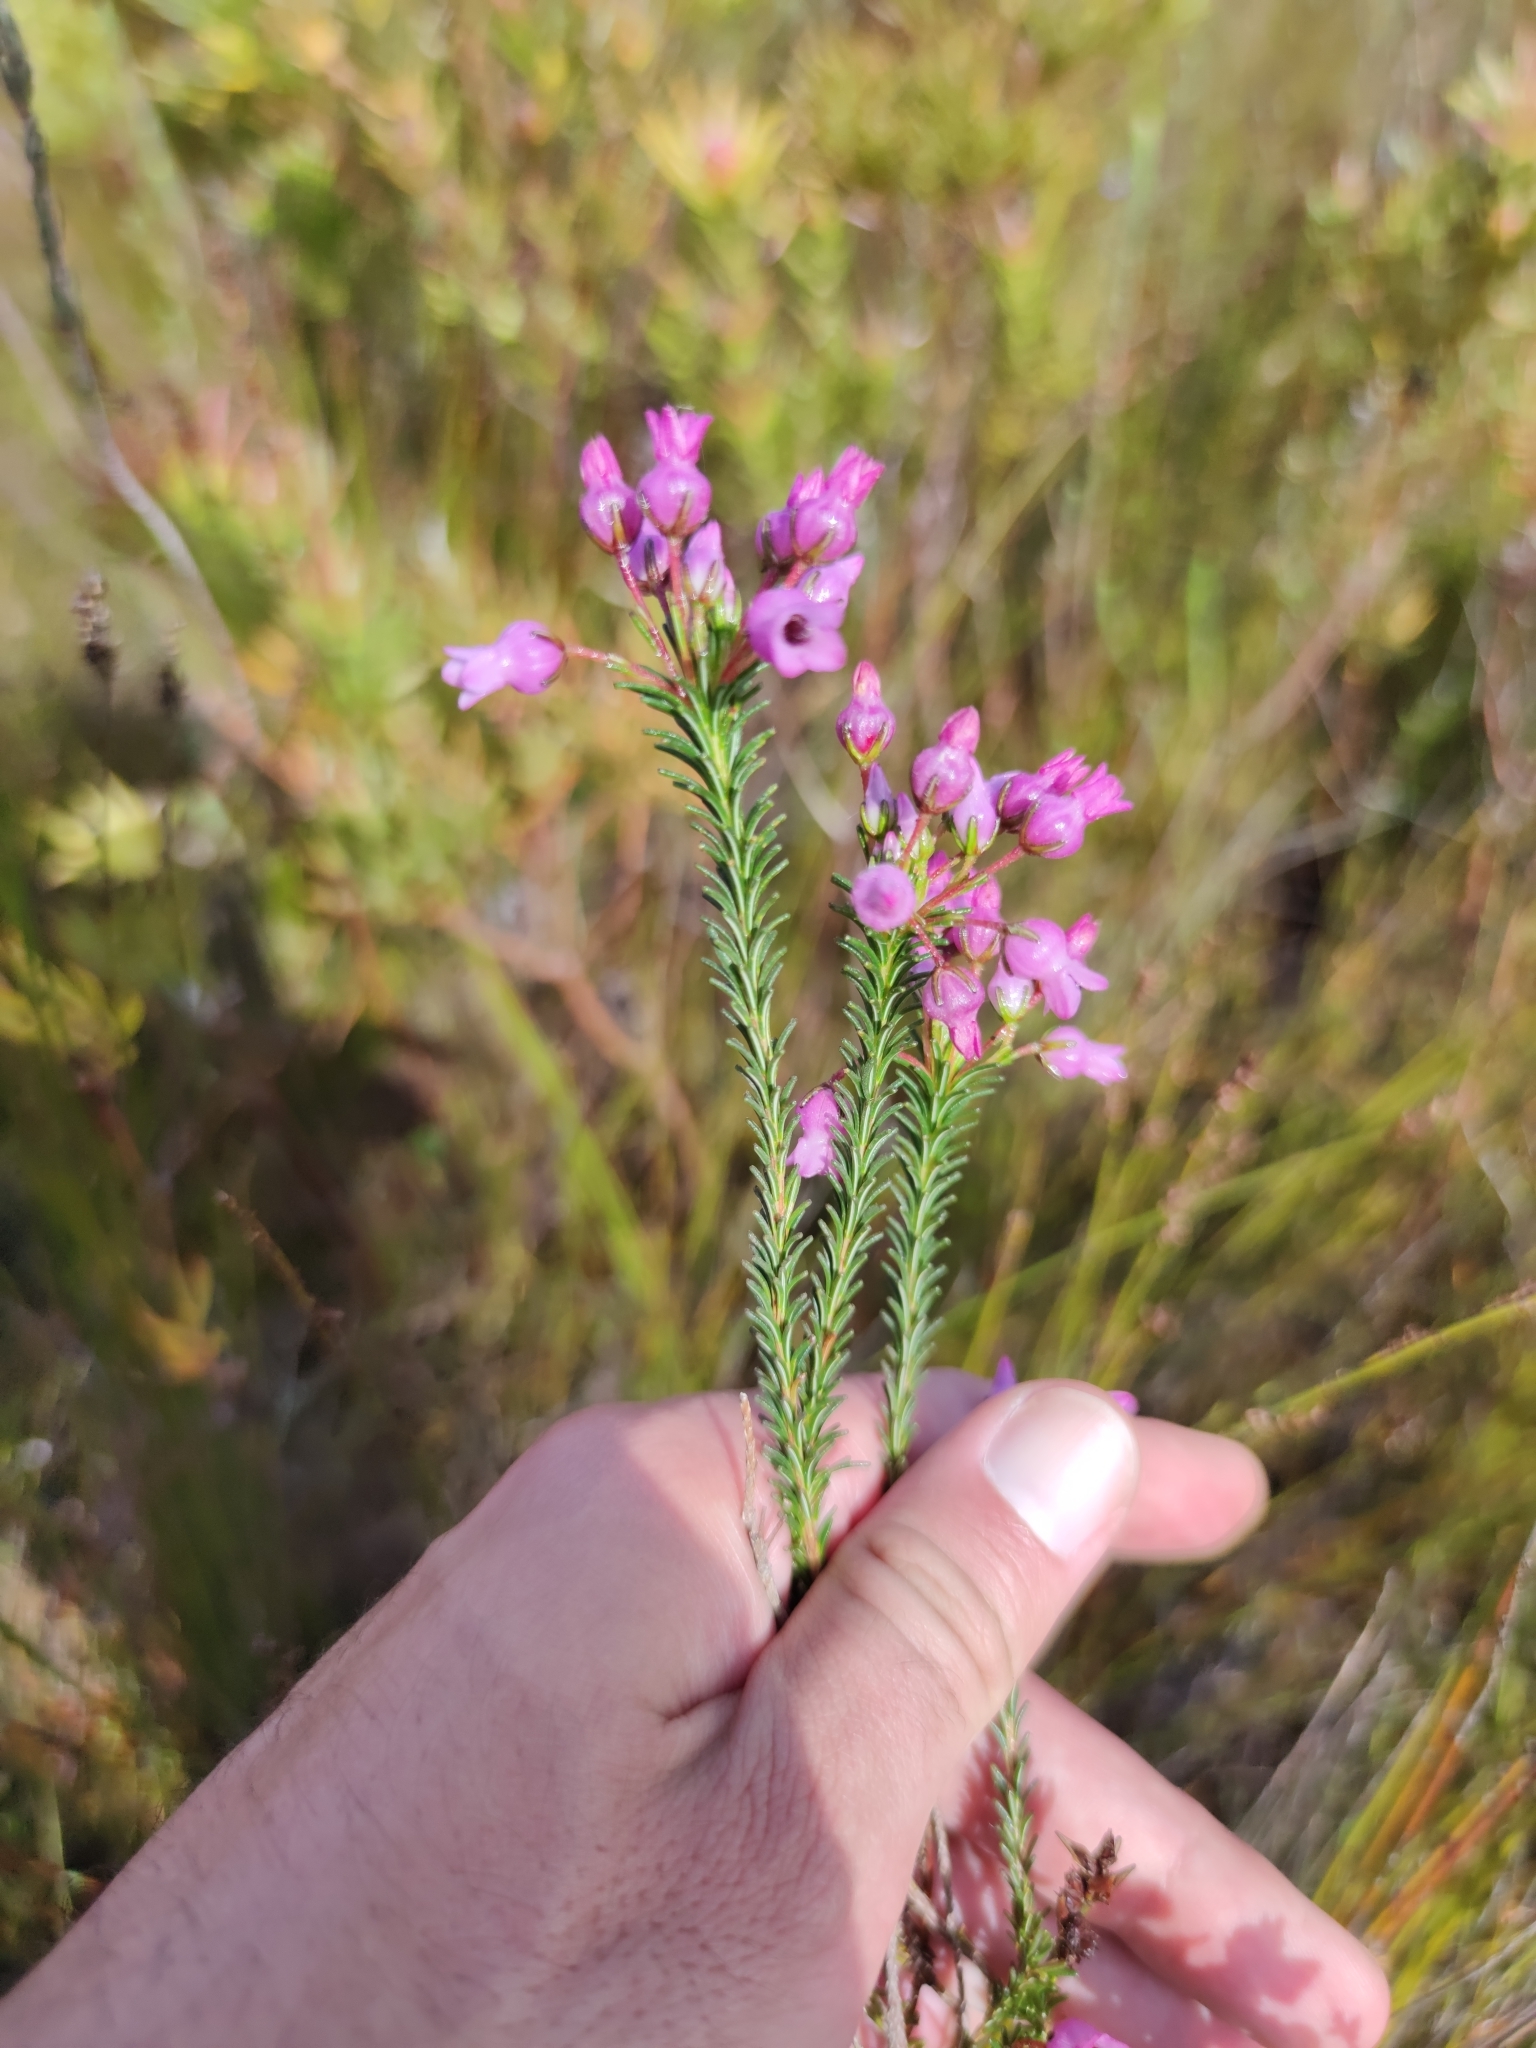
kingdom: Plantae
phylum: Tracheophyta
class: Magnoliopsida
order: Ericales
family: Ericaceae
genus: Erica
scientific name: Erica obliqua
